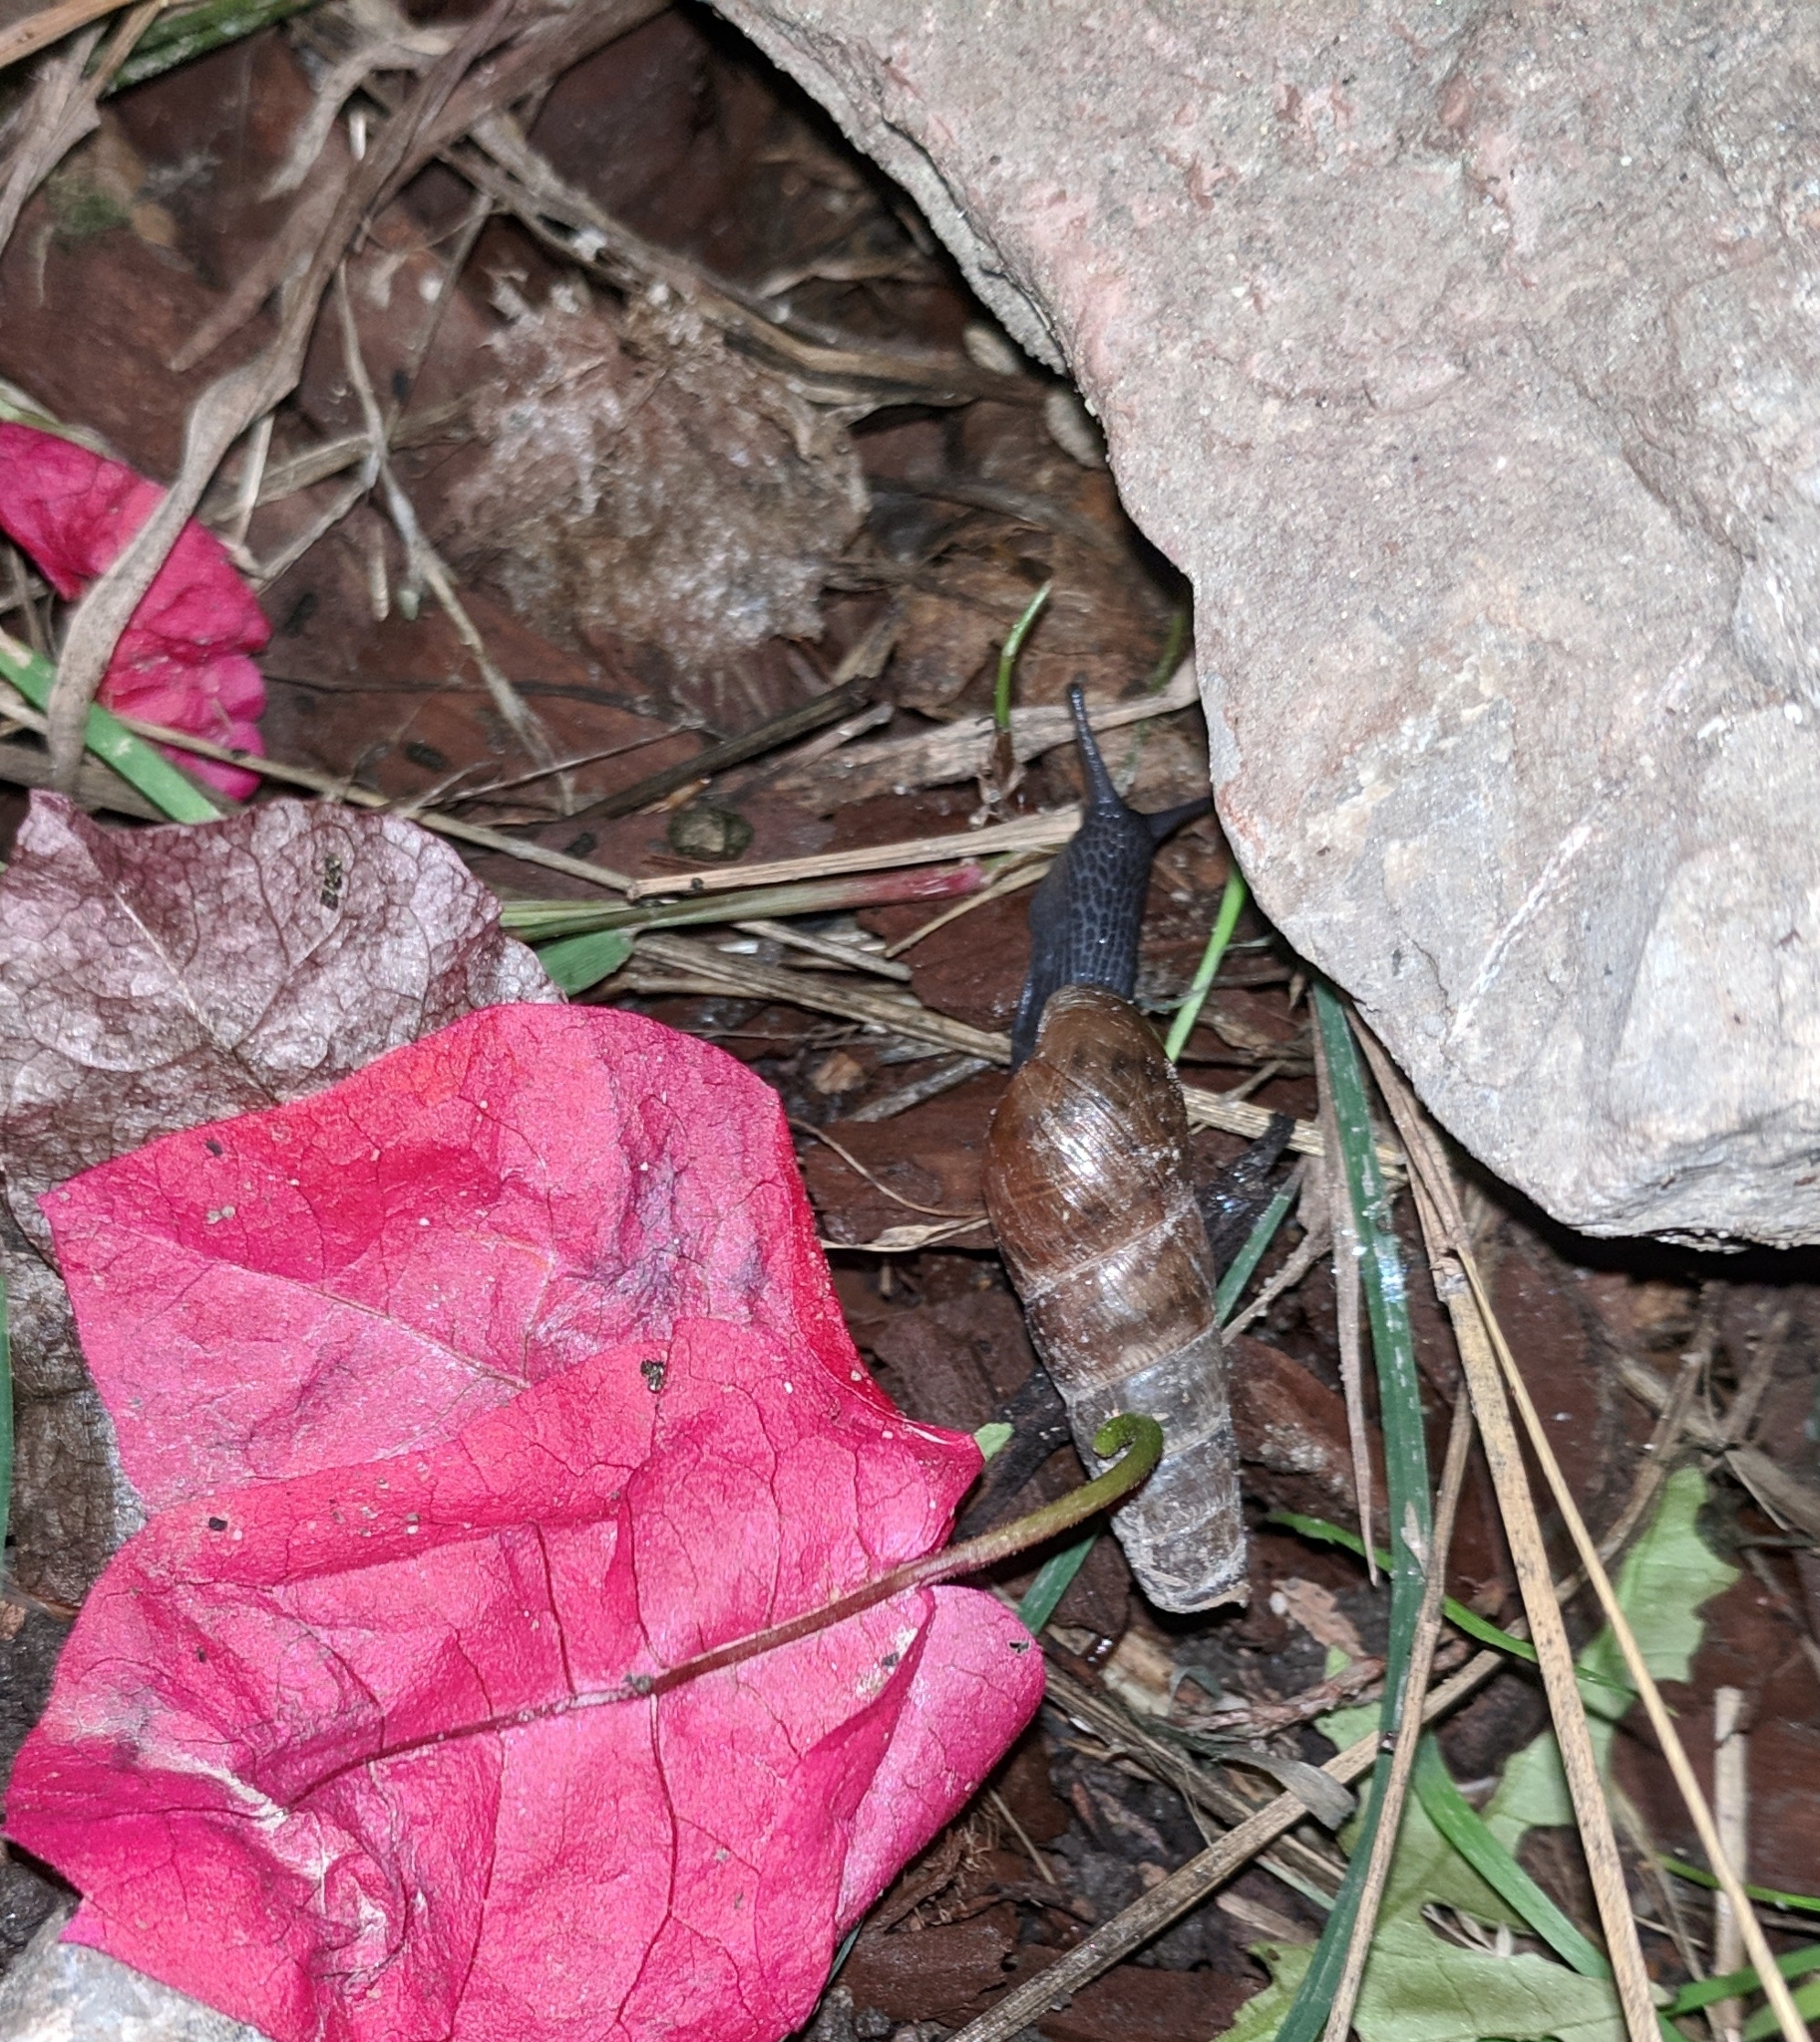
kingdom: Animalia
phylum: Mollusca
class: Gastropoda
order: Stylommatophora
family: Achatinidae
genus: Rumina
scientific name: Rumina decollata
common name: Decollate snail
